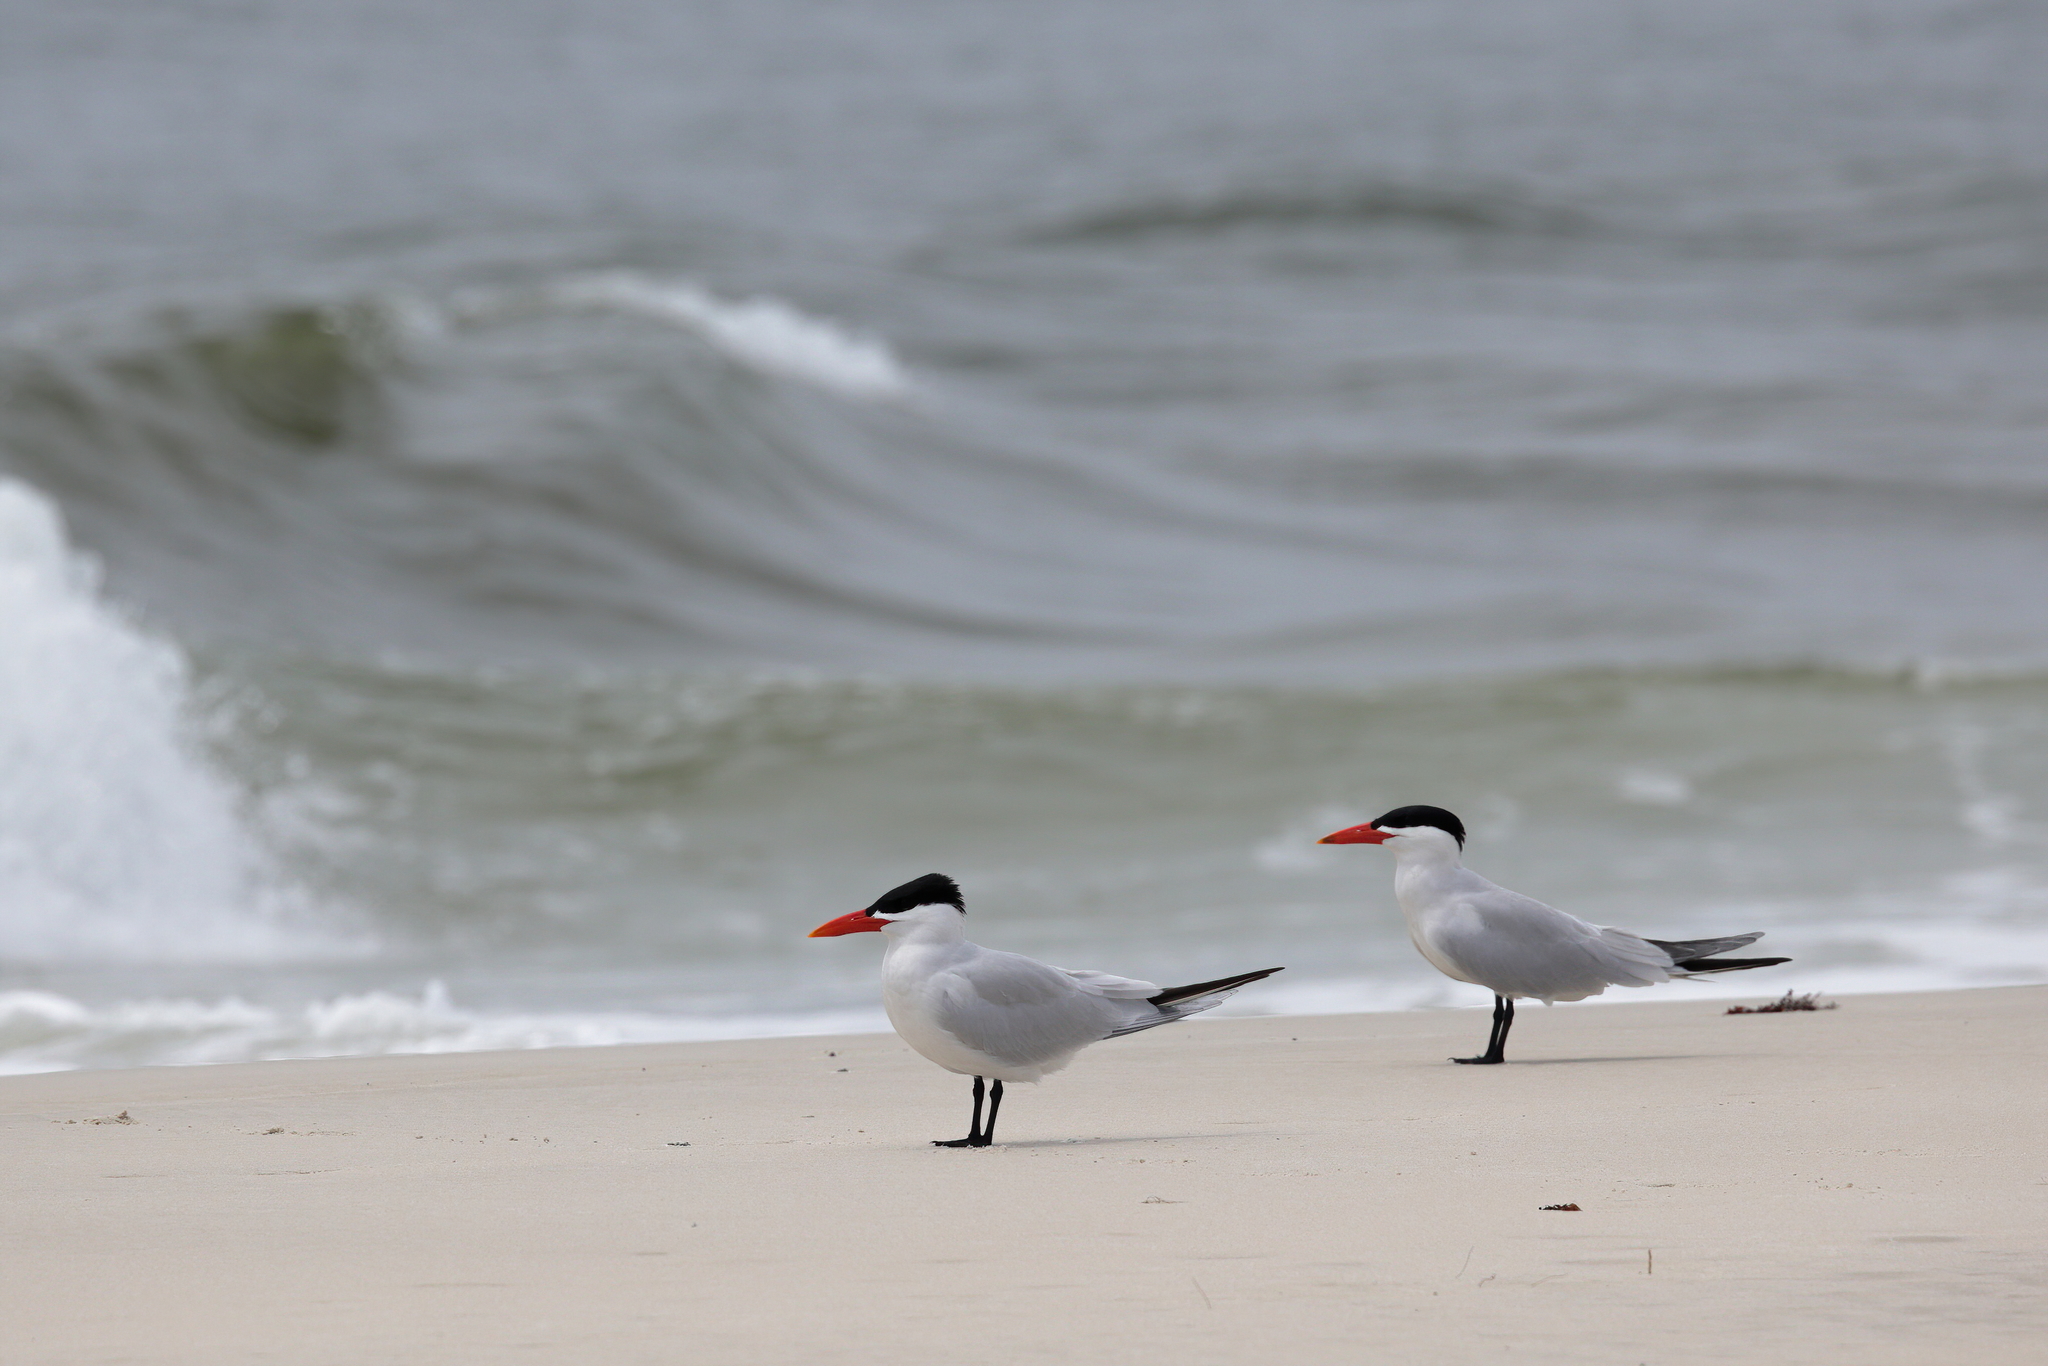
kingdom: Animalia
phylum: Chordata
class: Aves
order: Charadriiformes
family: Laridae
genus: Hydroprogne
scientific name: Hydroprogne caspia
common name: Caspian tern
